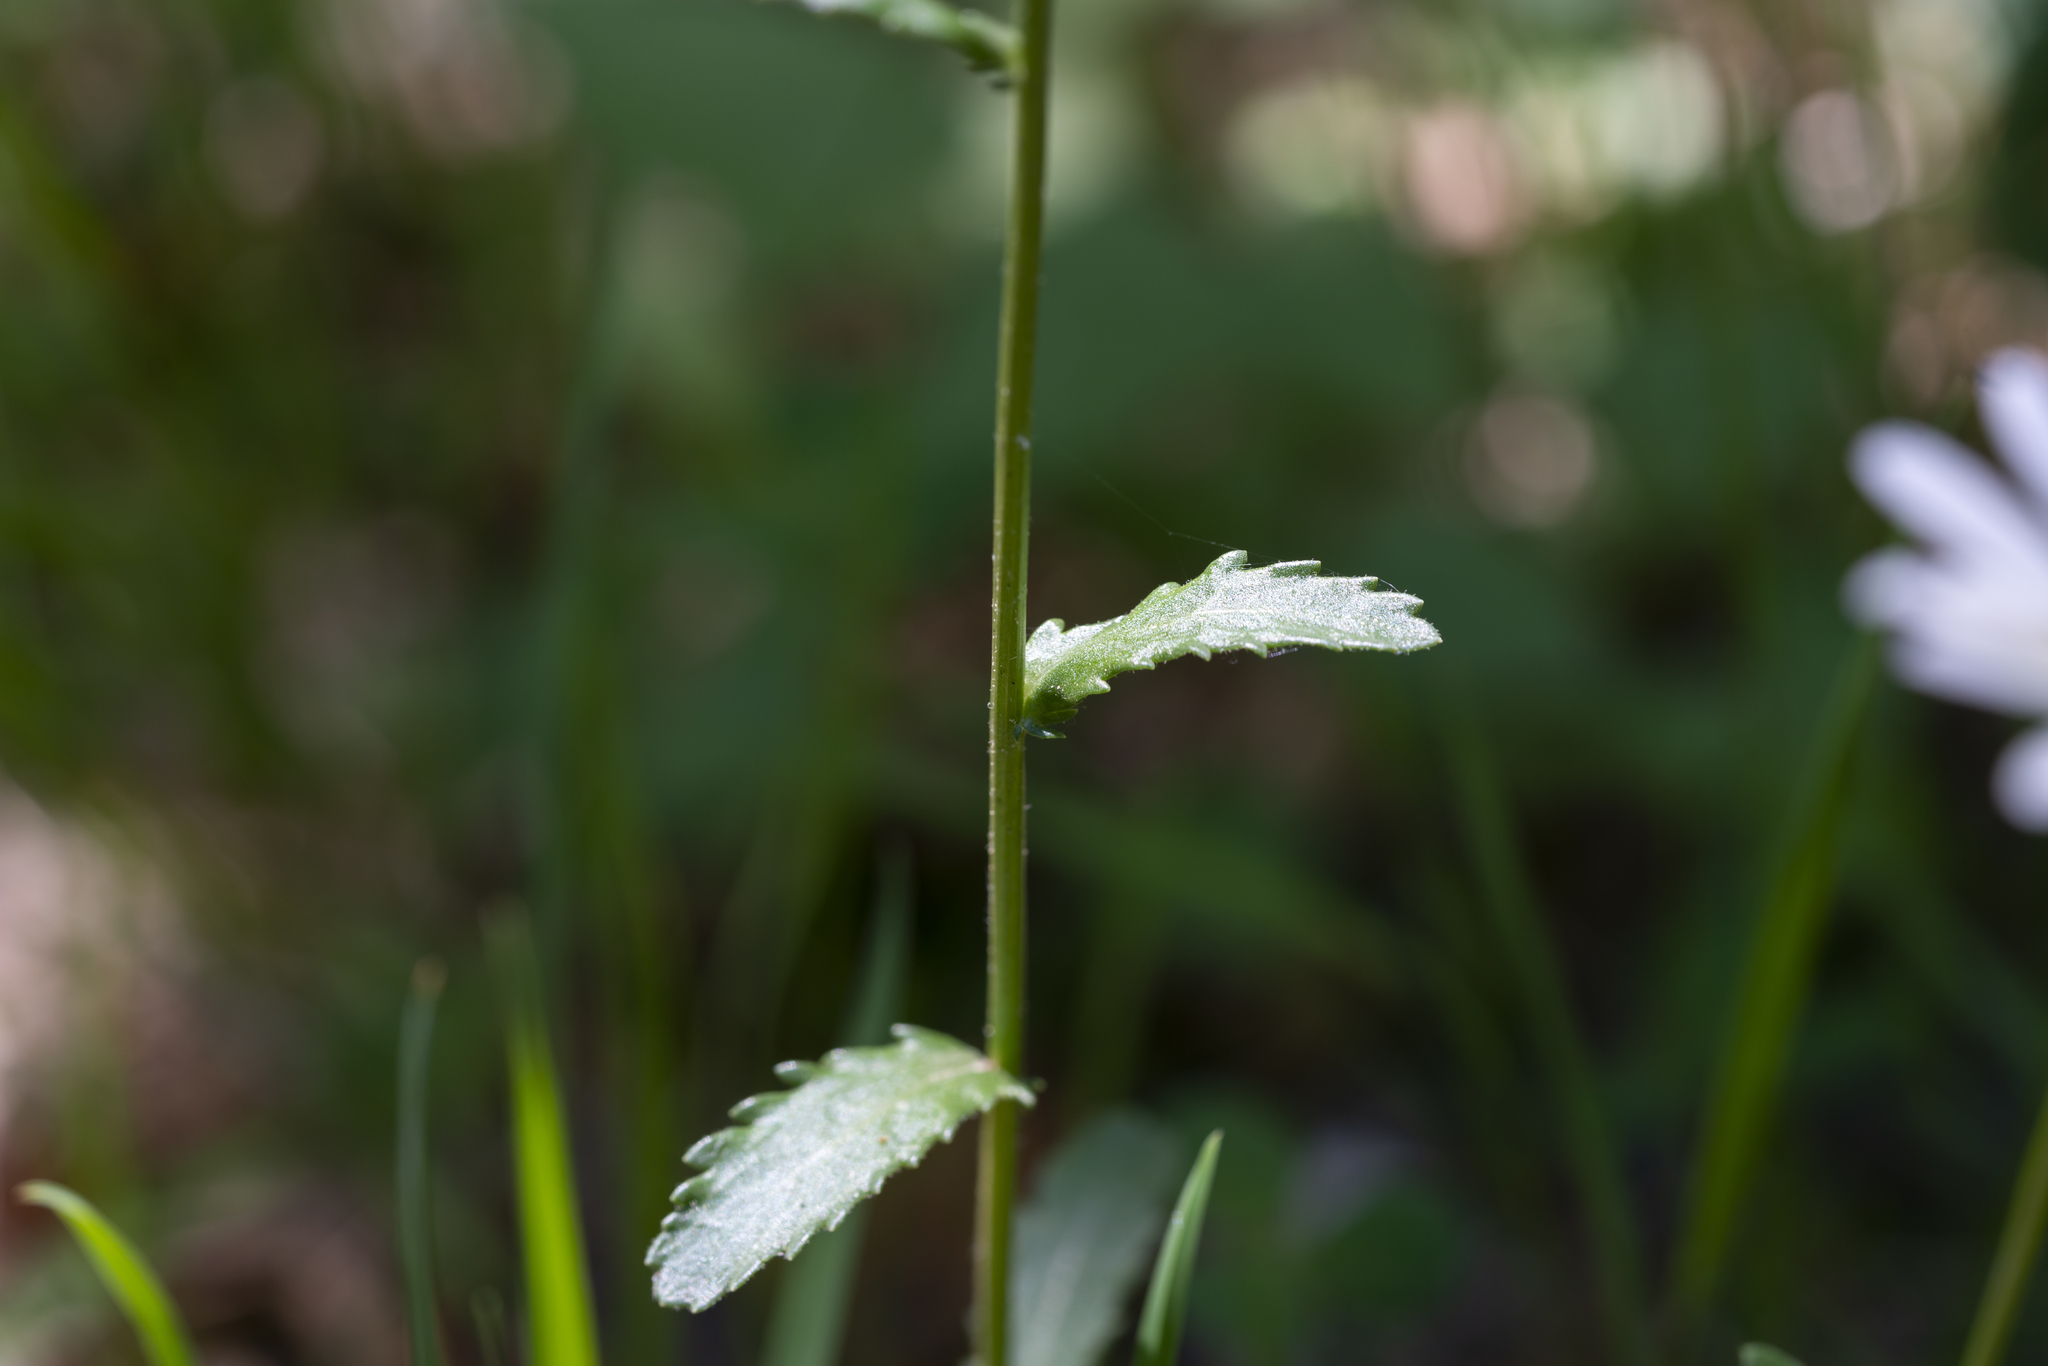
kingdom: Plantae
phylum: Tracheophyta
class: Magnoliopsida
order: Asterales
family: Asteraceae
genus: Leucanthemum
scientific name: Leucanthemum ircutianum
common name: Daisy
